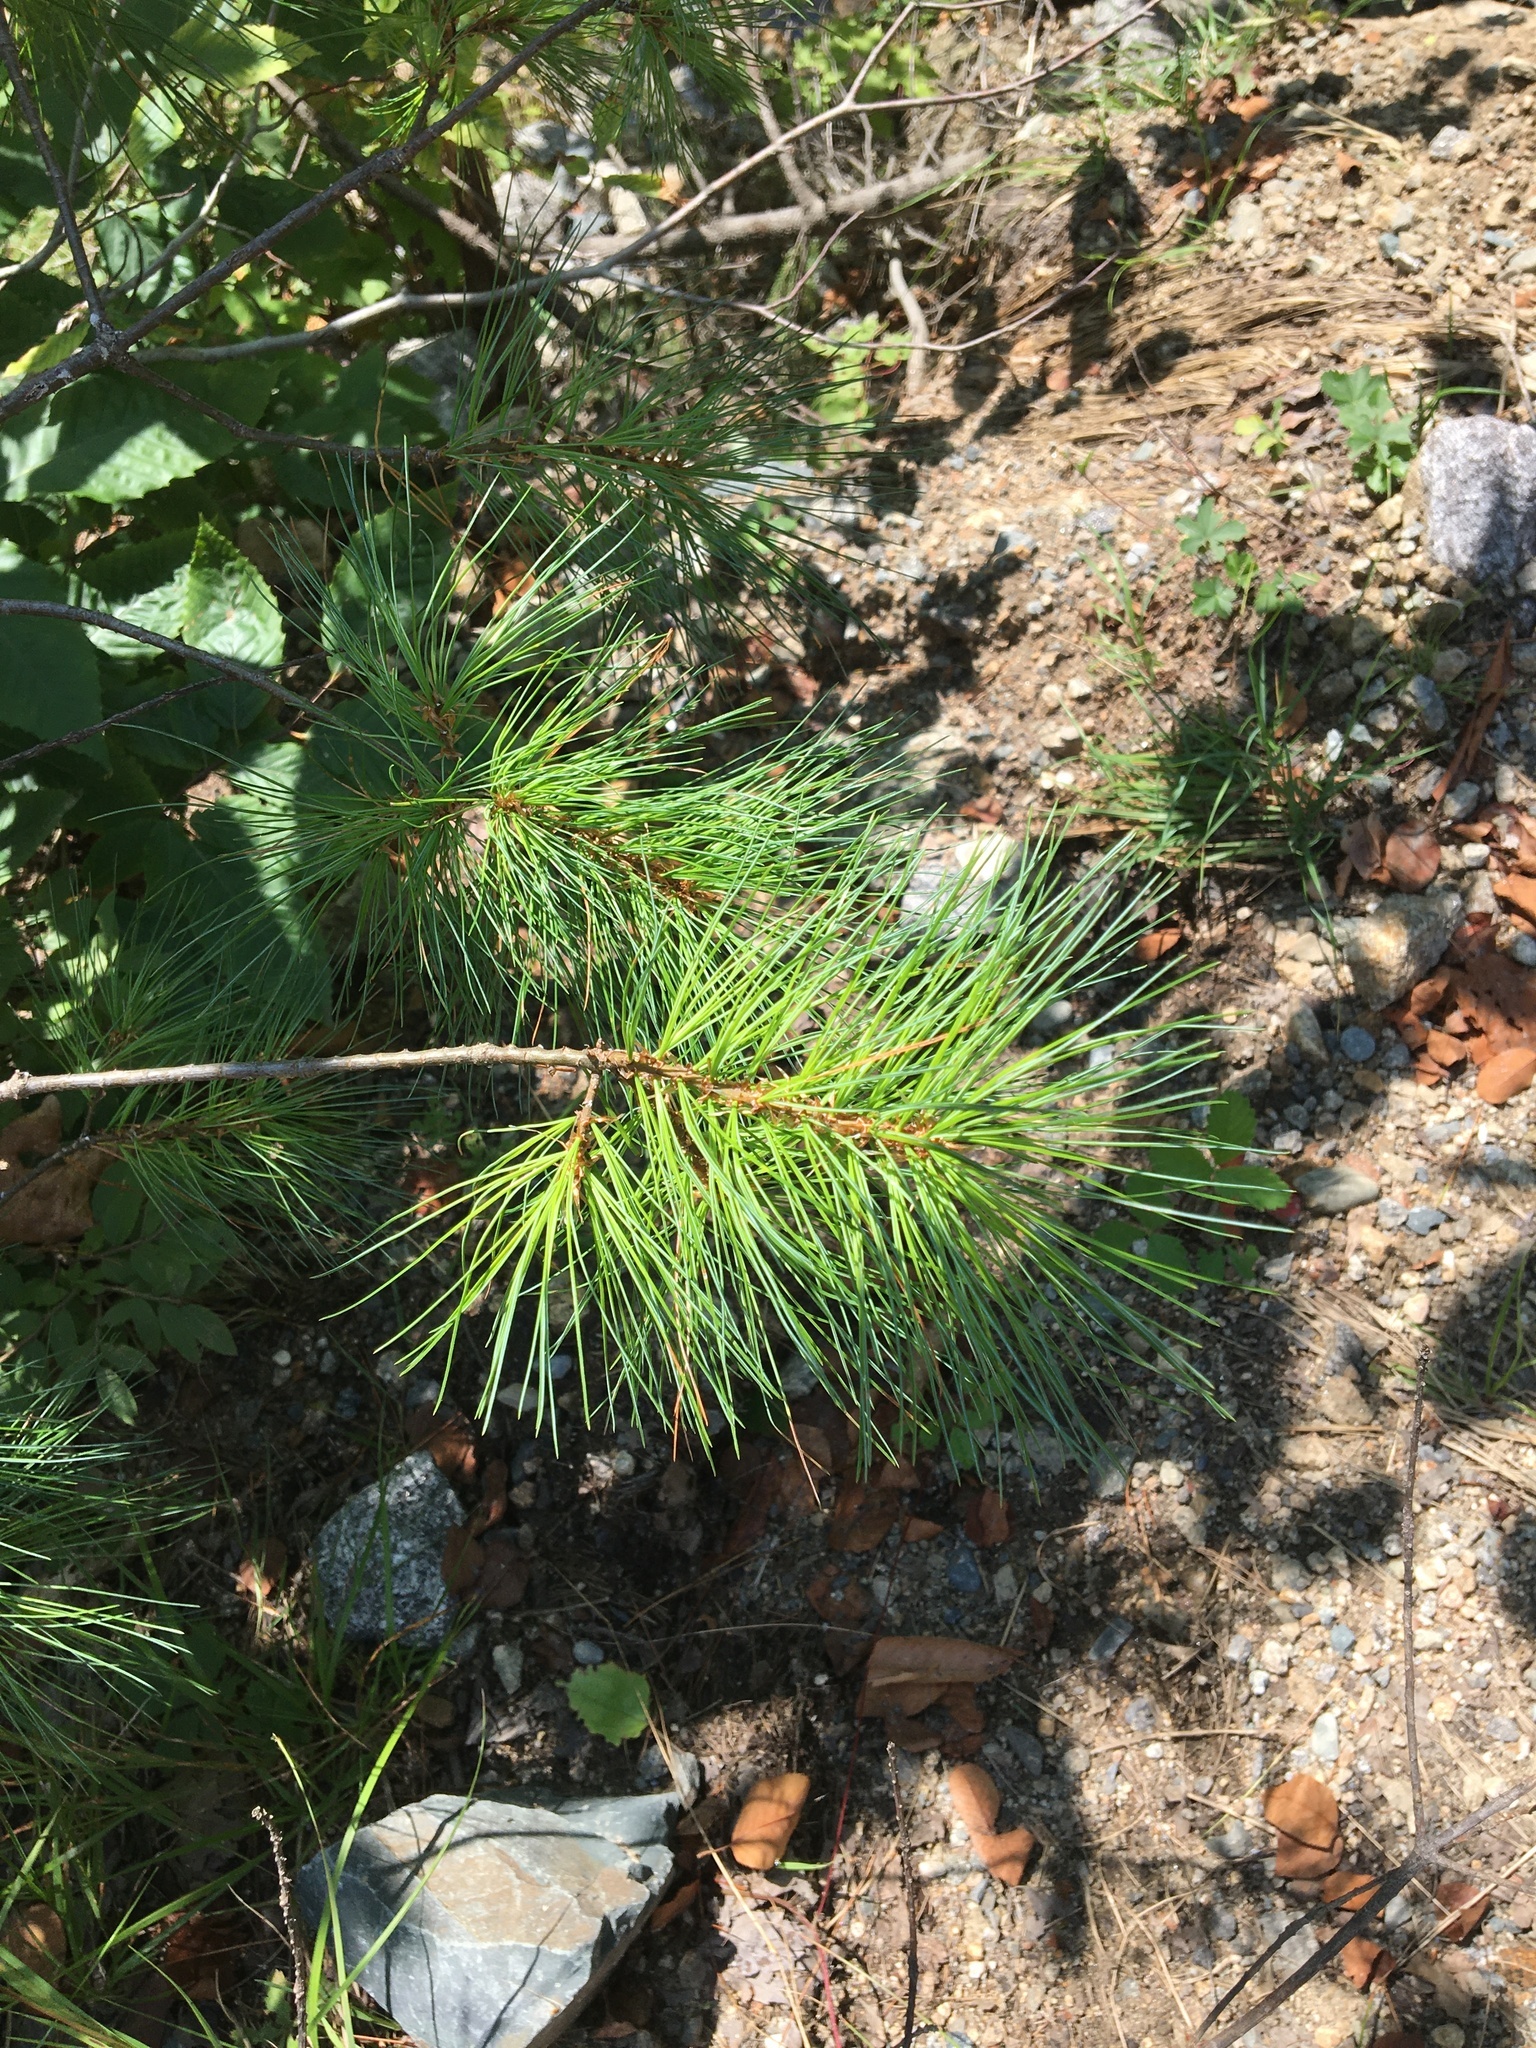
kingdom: Plantae
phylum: Tracheophyta
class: Magnoliopsida
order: Rosales
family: Rosaceae
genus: Fragaria
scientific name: Fragaria virginiana
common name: Thickleaved wild strawberry
